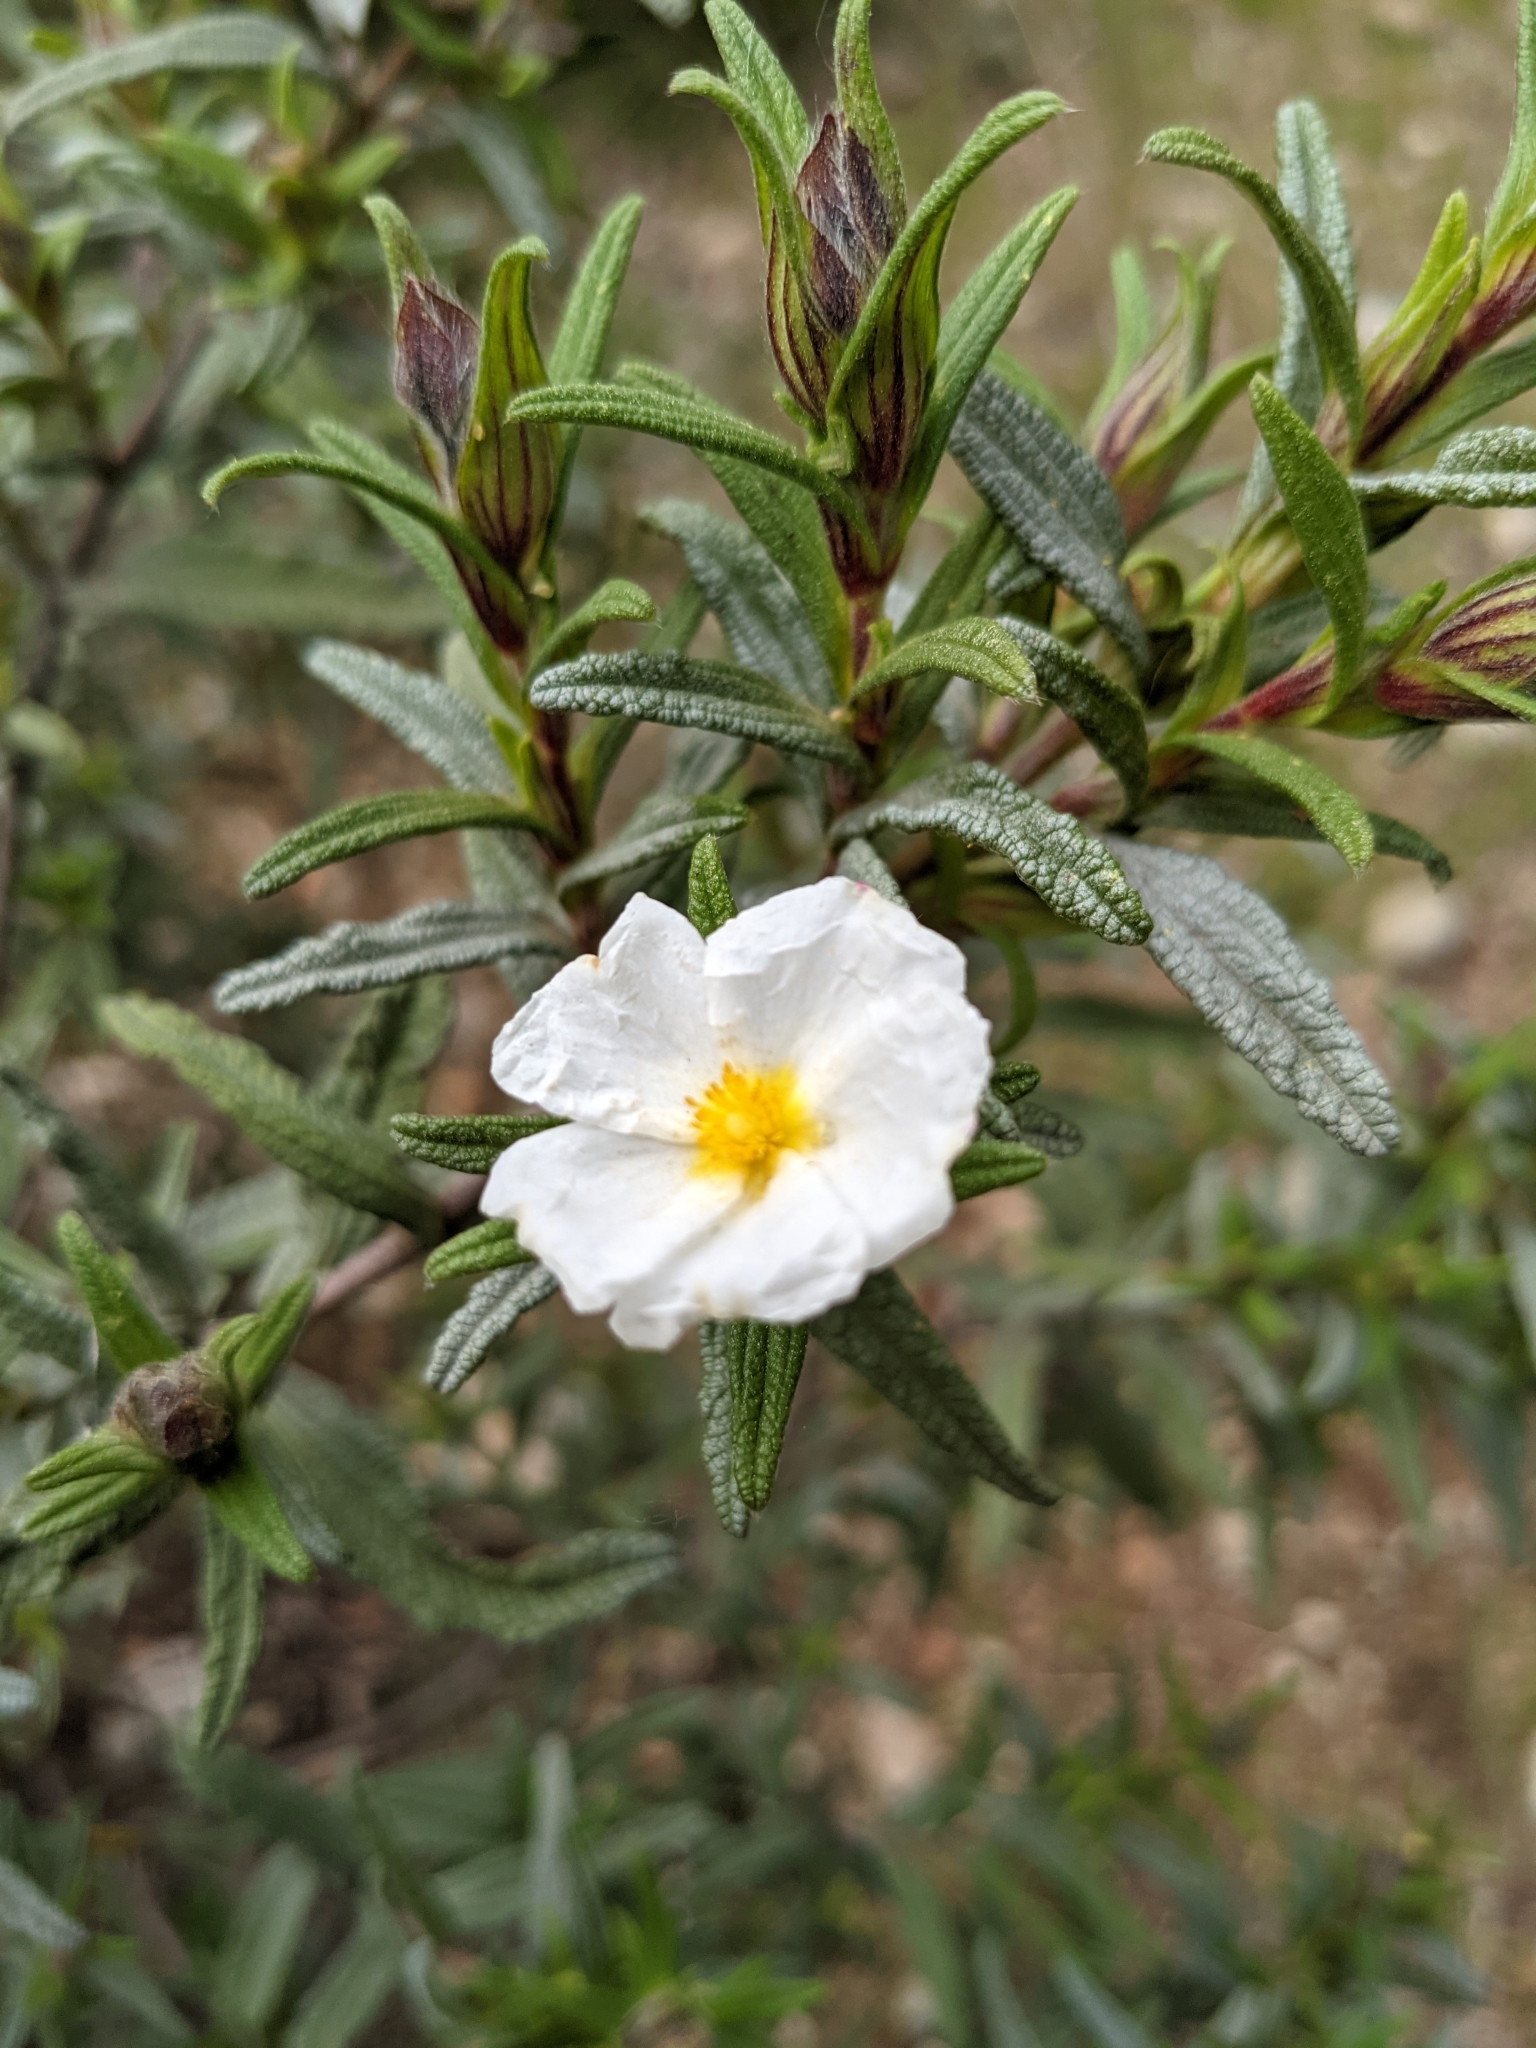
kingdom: Plantae
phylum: Tracheophyta
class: Magnoliopsida
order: Malvales
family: Cistaceae
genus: Cistus
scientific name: Cistus monspeliensis
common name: Montpelier cistus
